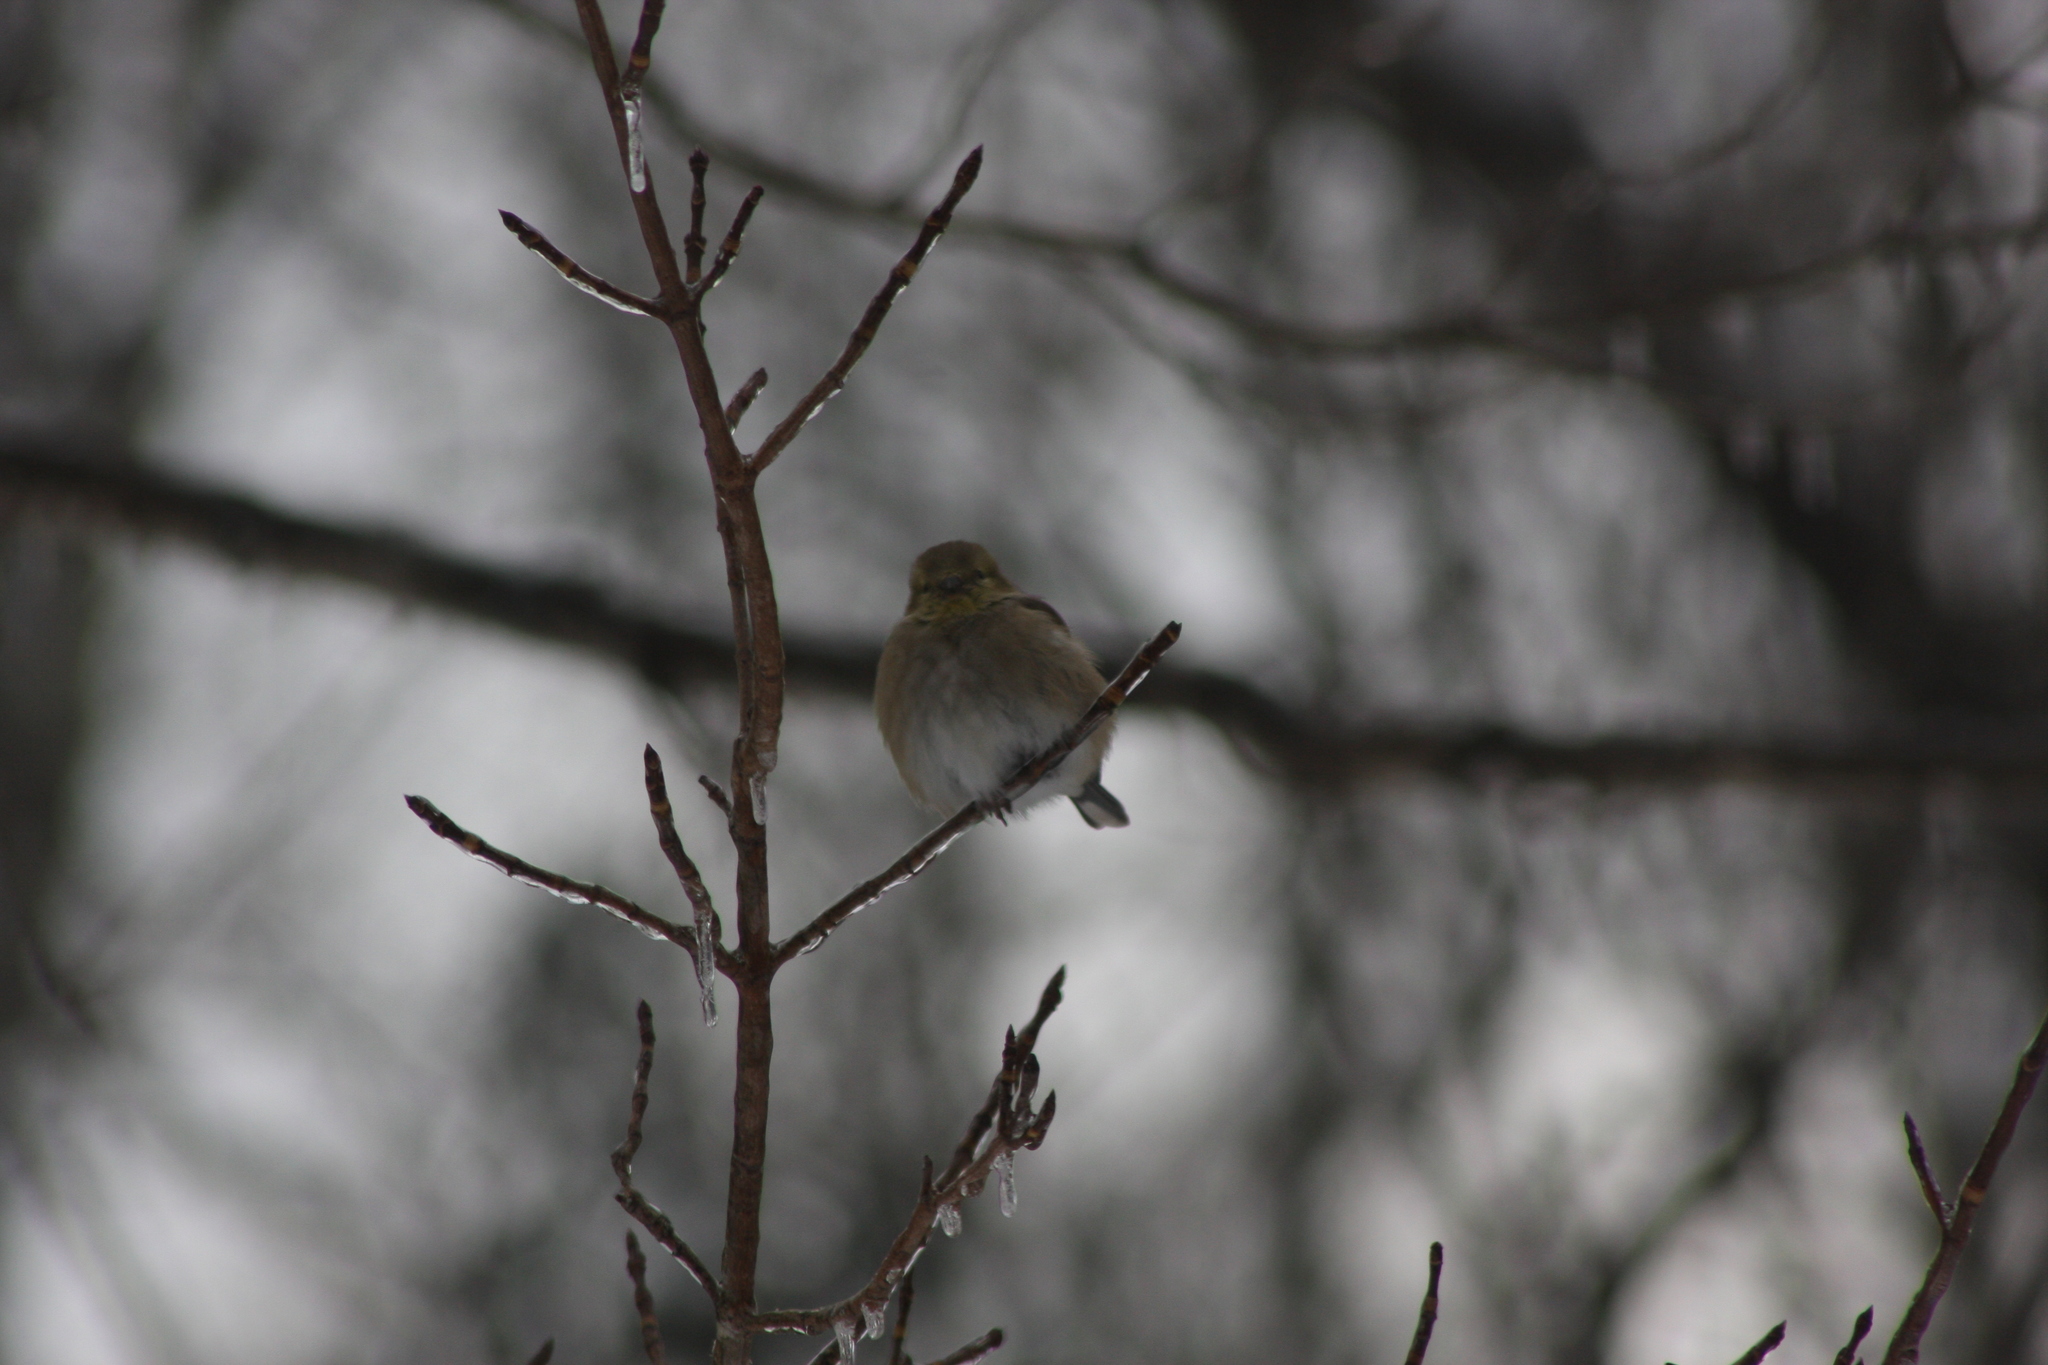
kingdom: Animalia
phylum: Chordata
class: Aves
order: Passeriformes
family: Fringillidae
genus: Spinus
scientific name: Spinus tristis
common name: American goldfinch
